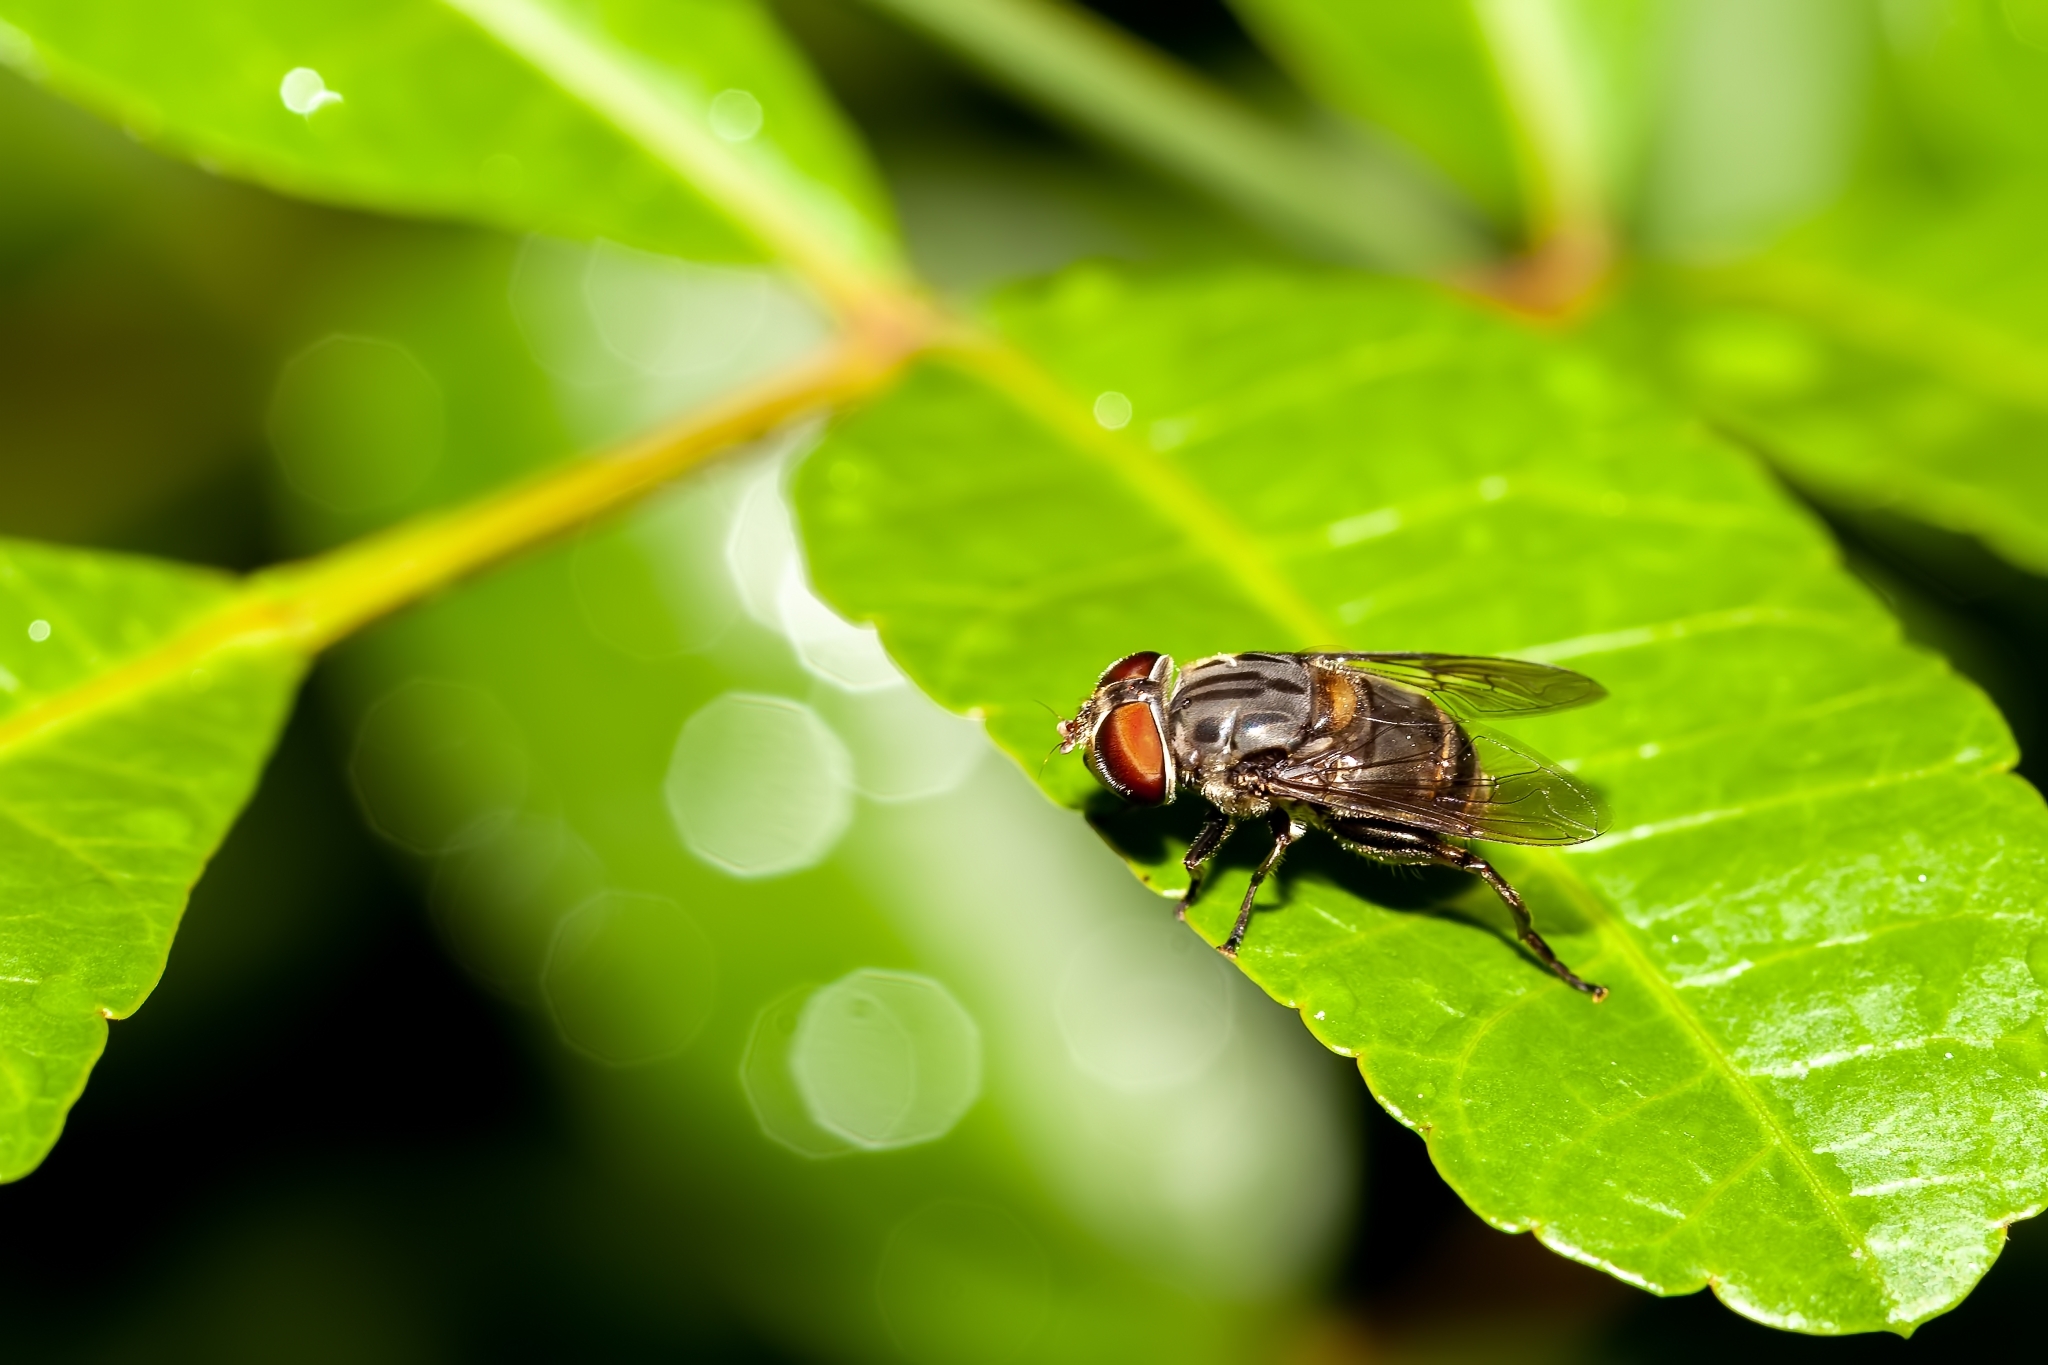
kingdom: Animalia
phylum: Arthropoda
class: Insecta
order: Diptera
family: Syrphidae
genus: Palpada
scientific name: Palpada furcata
